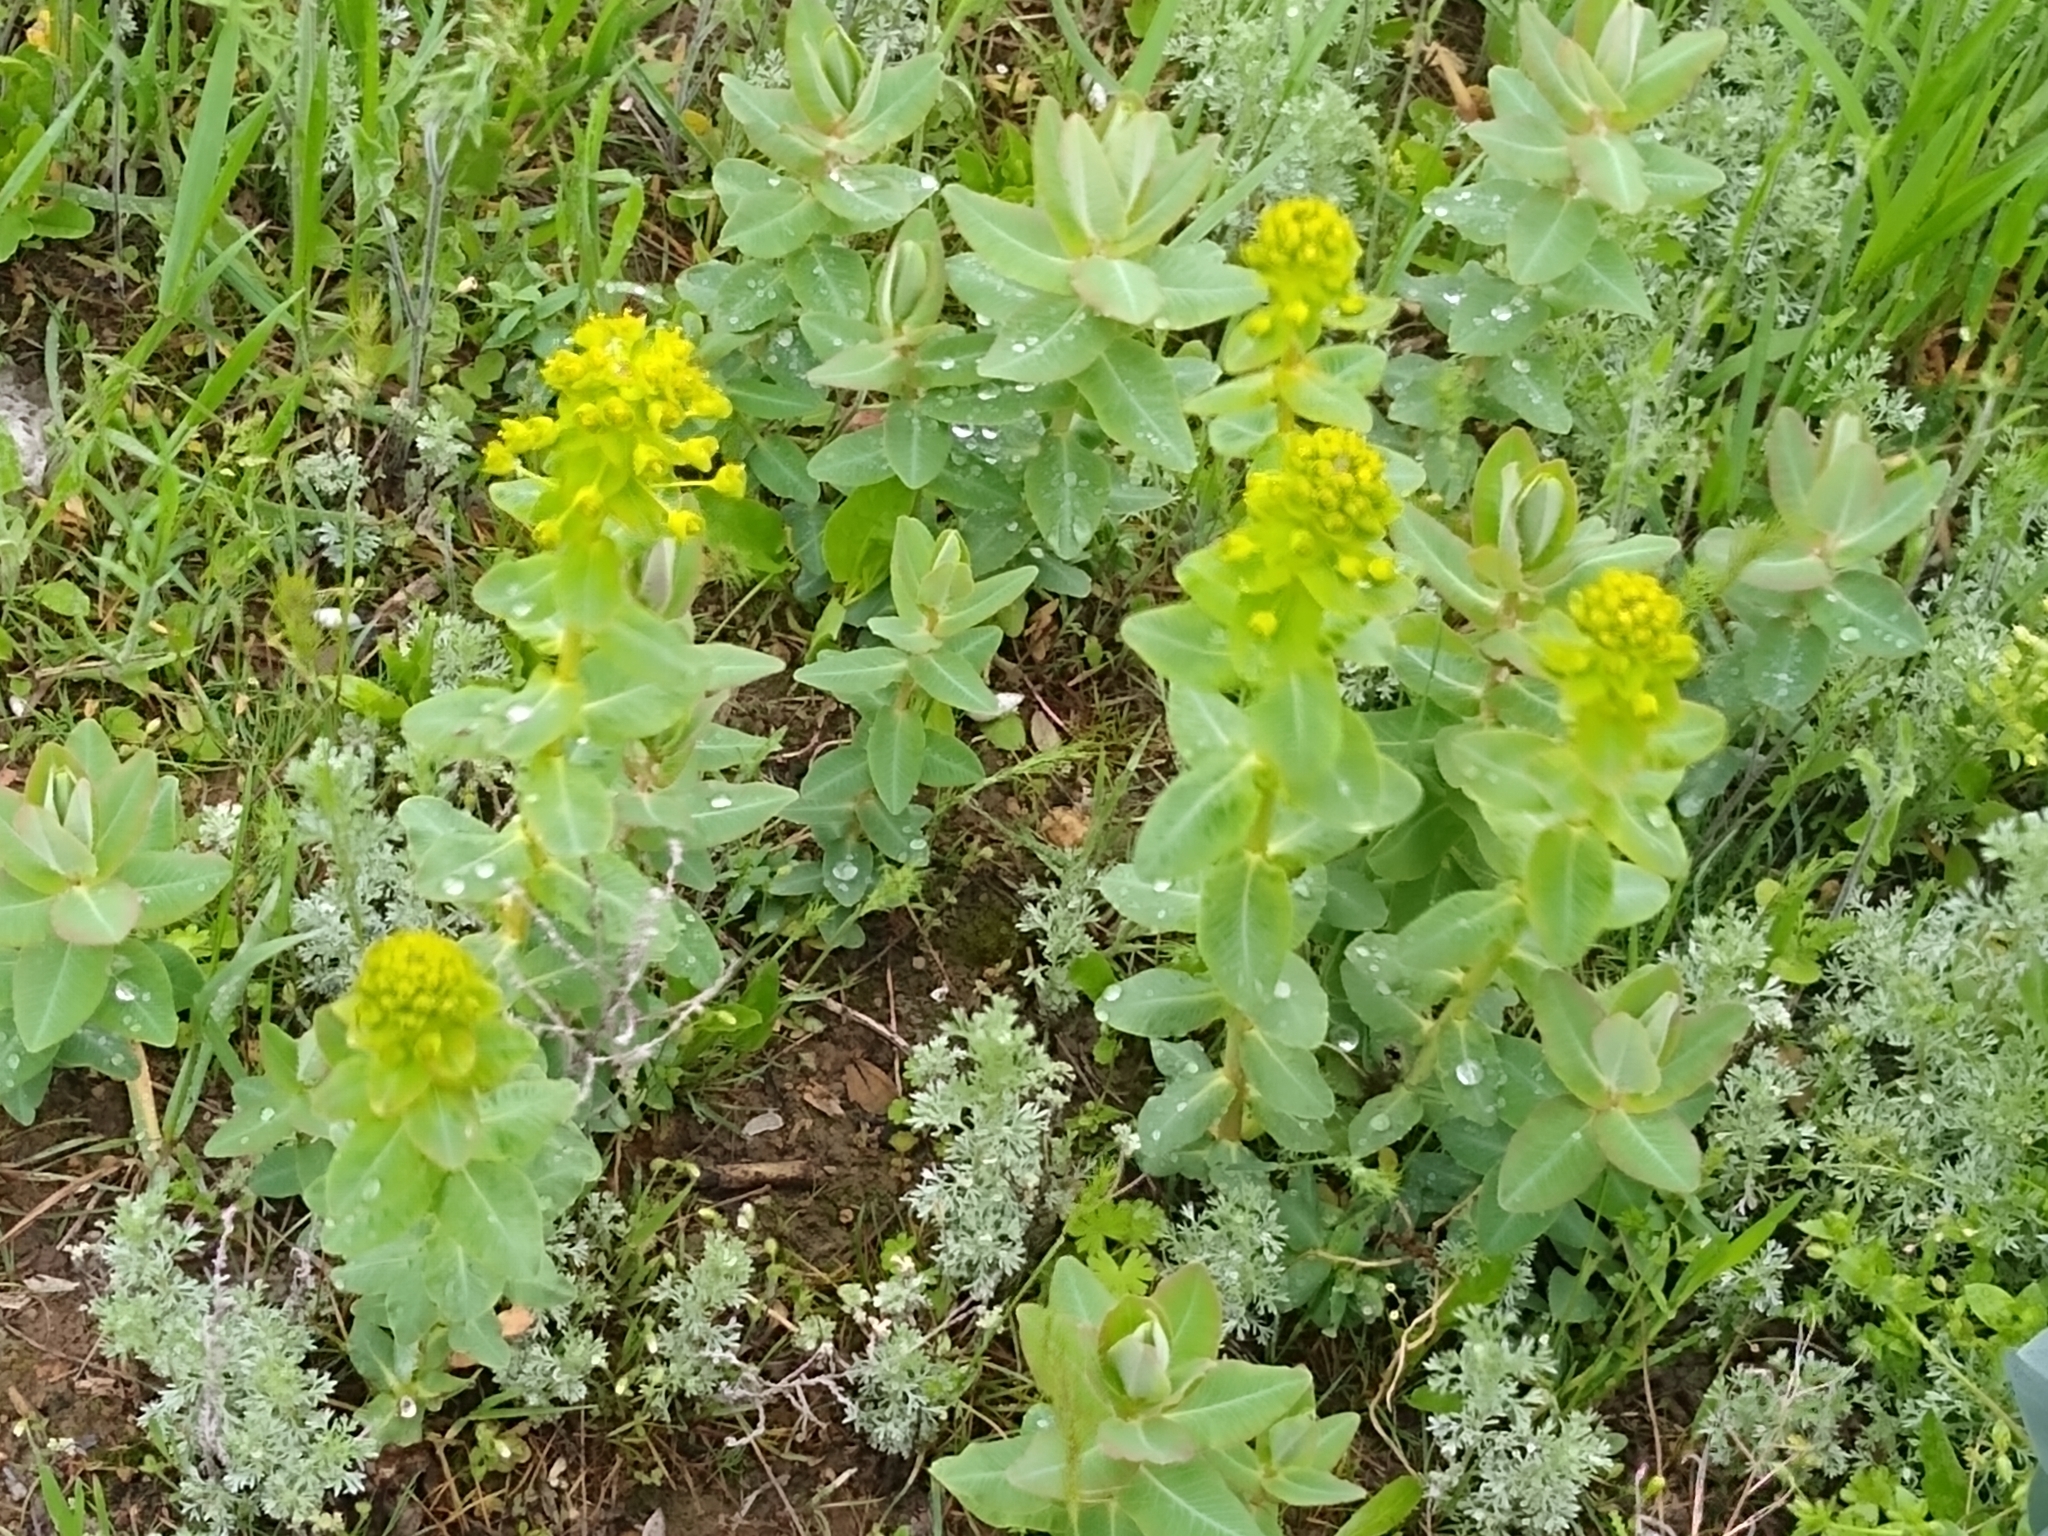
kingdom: Plantae
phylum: Tracheophyta
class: Magnoliopsida
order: Malpighiales
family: Euphorbiaceae
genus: Euphorbia
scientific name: Euphorbia agraria
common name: Urban spurge
